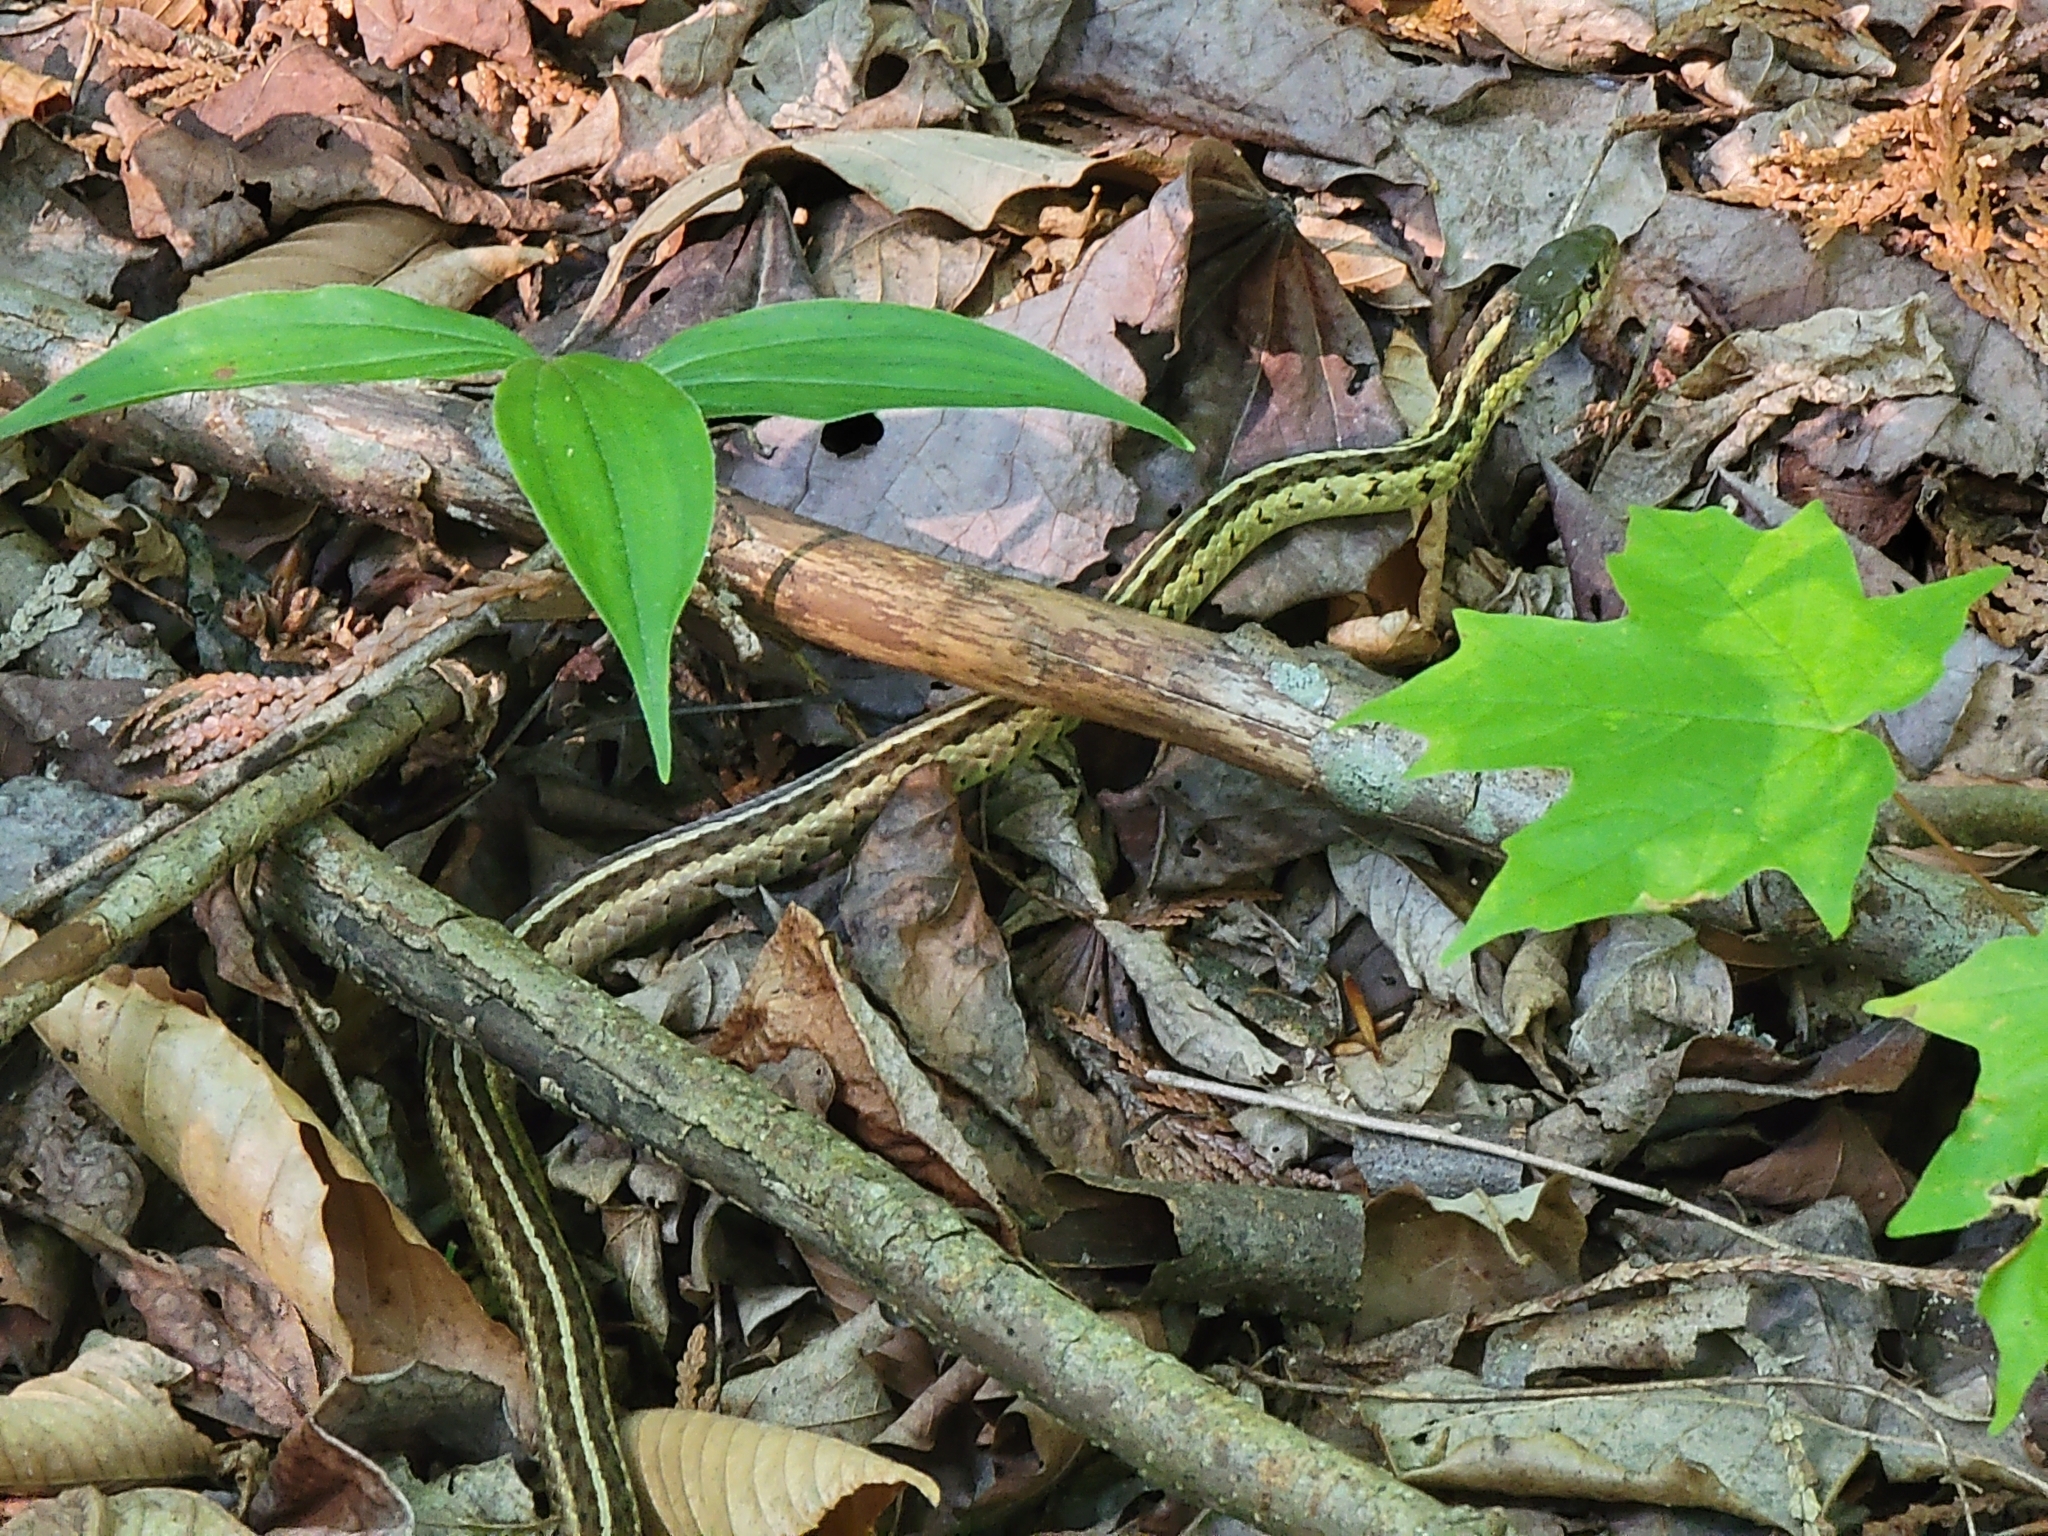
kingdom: Animalia
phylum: Chordata
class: Squamata
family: Colubridae
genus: Thamnophis
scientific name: Thamnophis sirtalis
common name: Common garter snake
